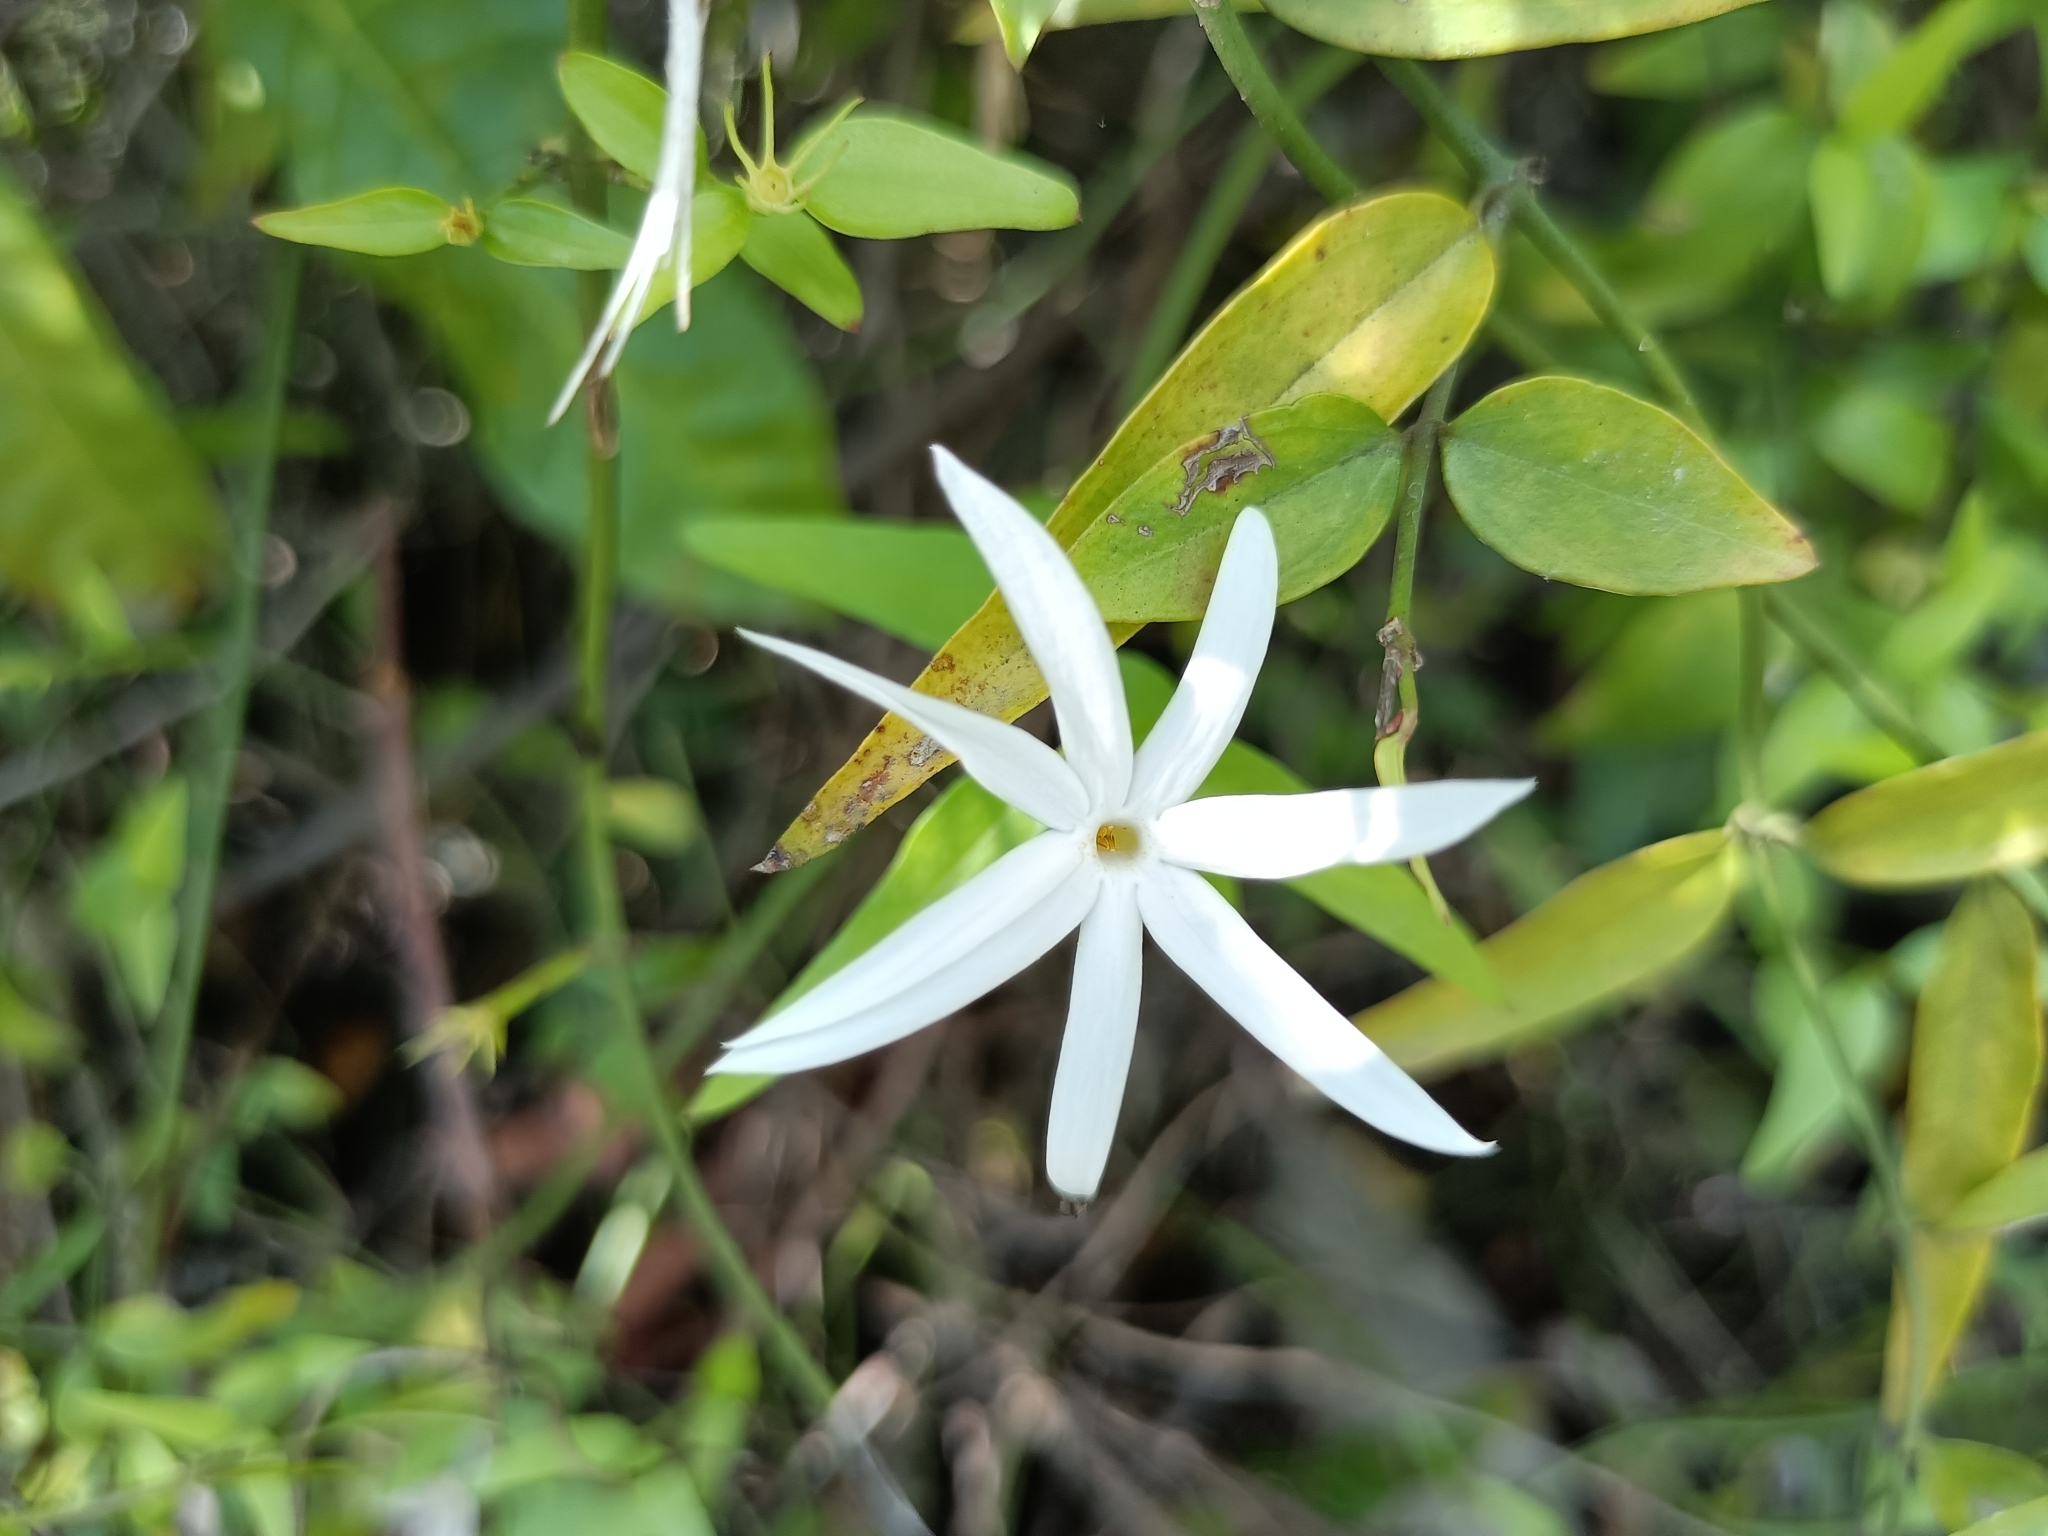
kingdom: Plantae
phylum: Tracheophyta
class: Magnoliopsida
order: Lamiales
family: Oleaceae
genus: Jasminum
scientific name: Jasminum nervosum
